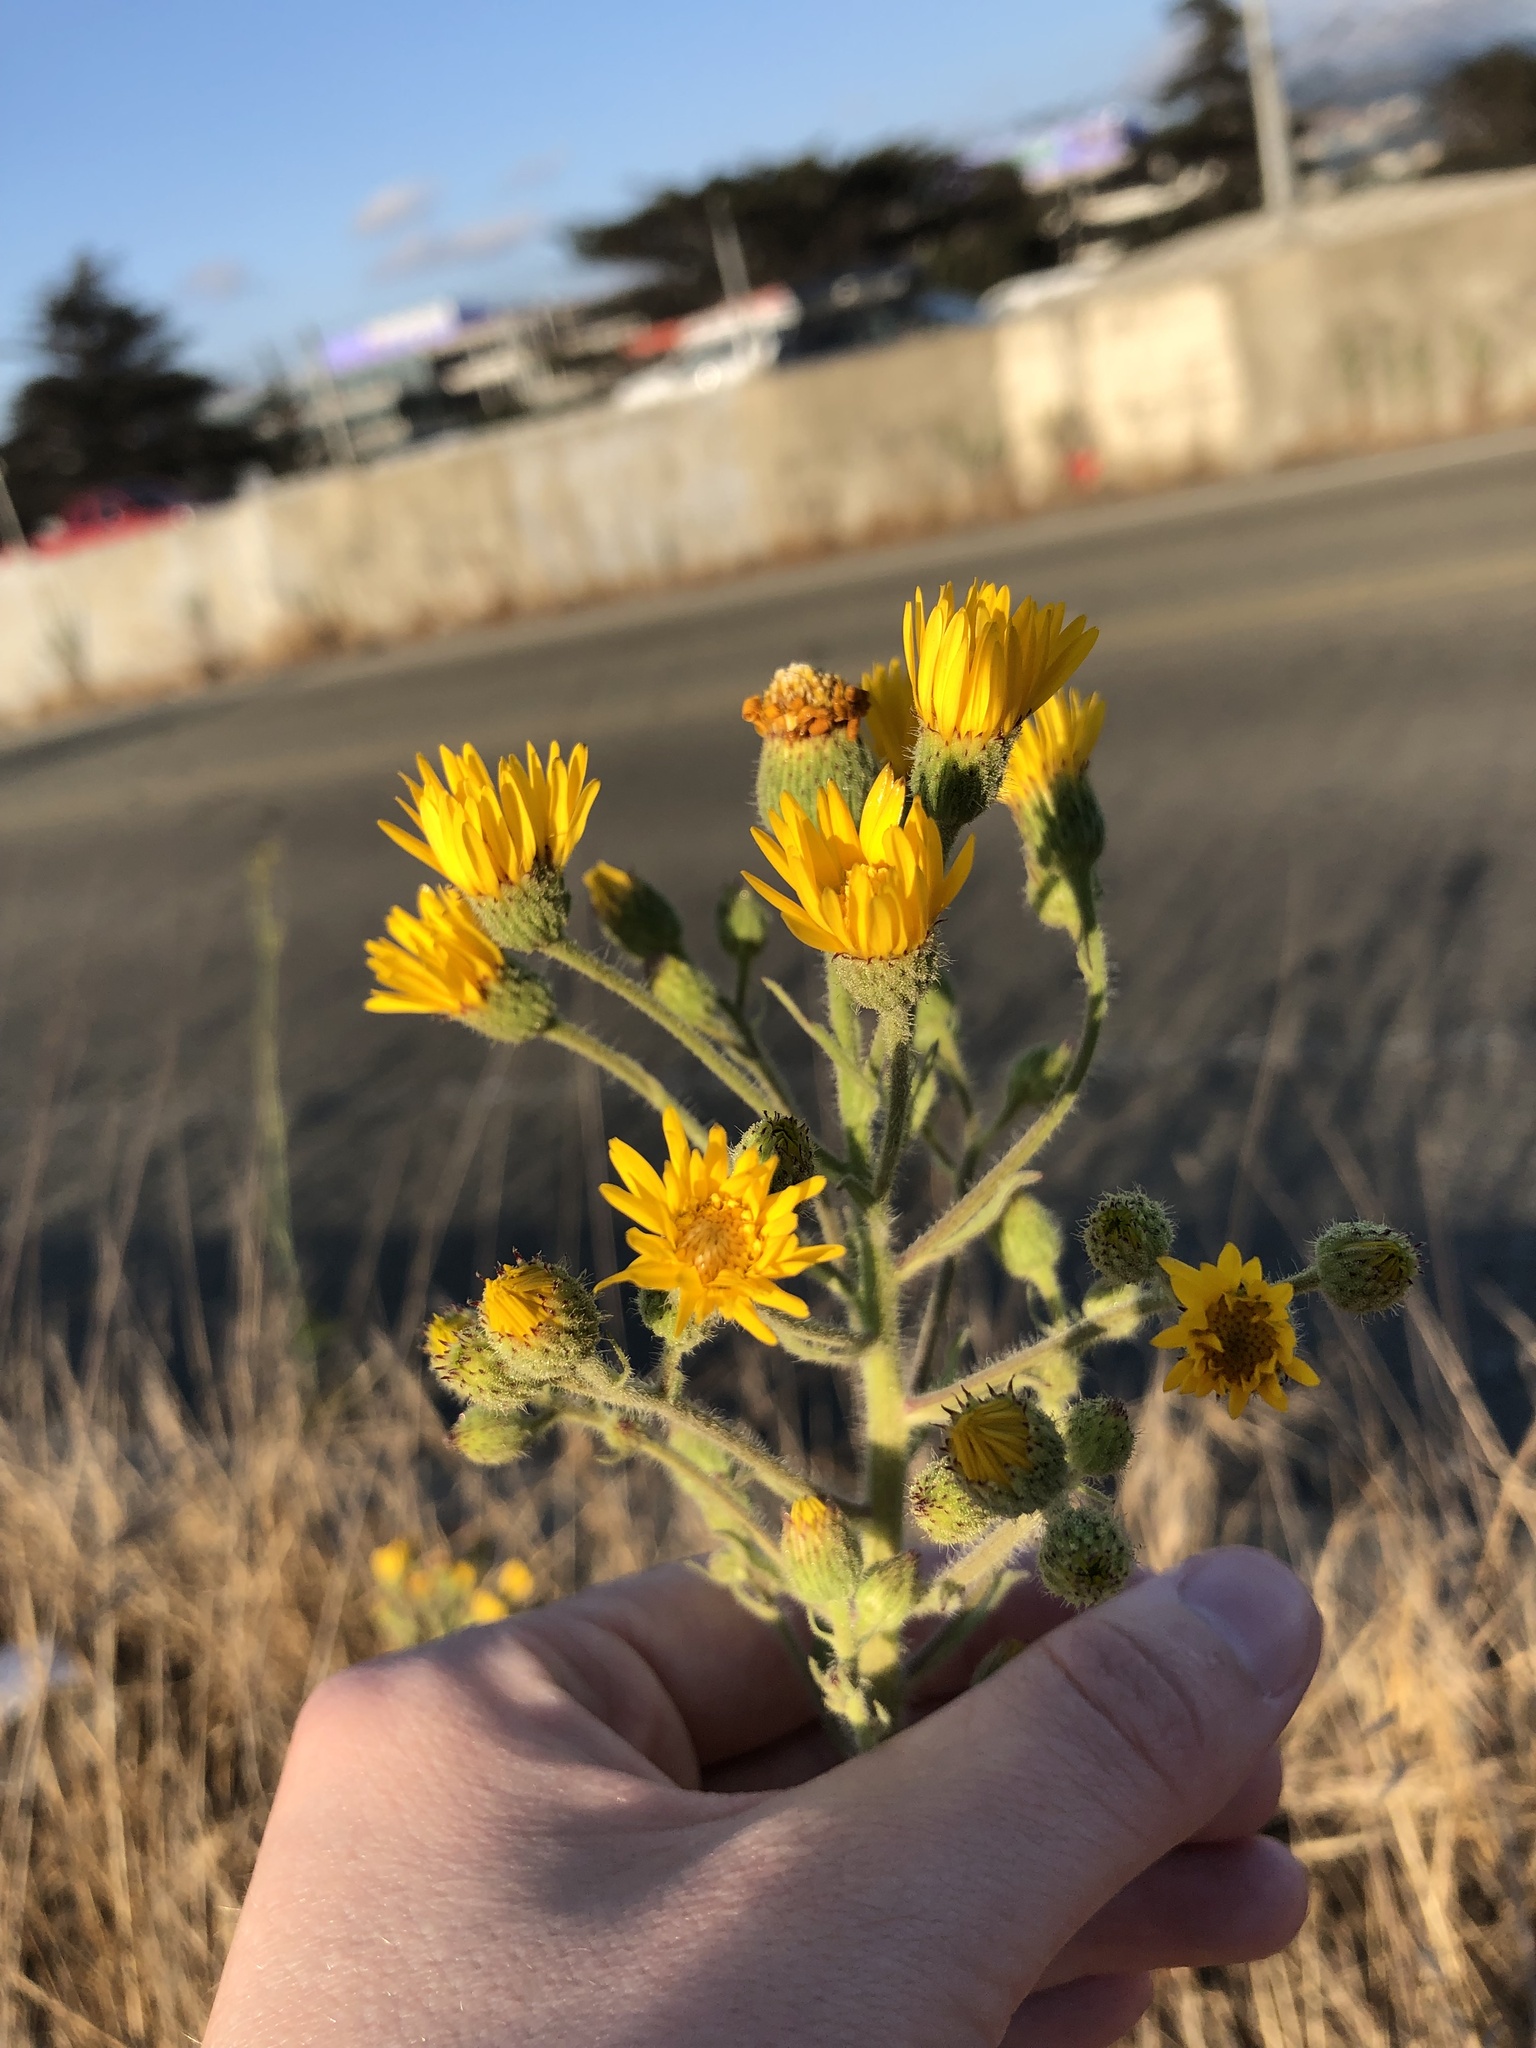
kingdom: Plantae
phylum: Tracheophyta
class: Magnoliopsida
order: Asterales
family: Asteraceae
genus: Heterotheca
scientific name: Heterotheca grandiflora
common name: Telegraphweed
